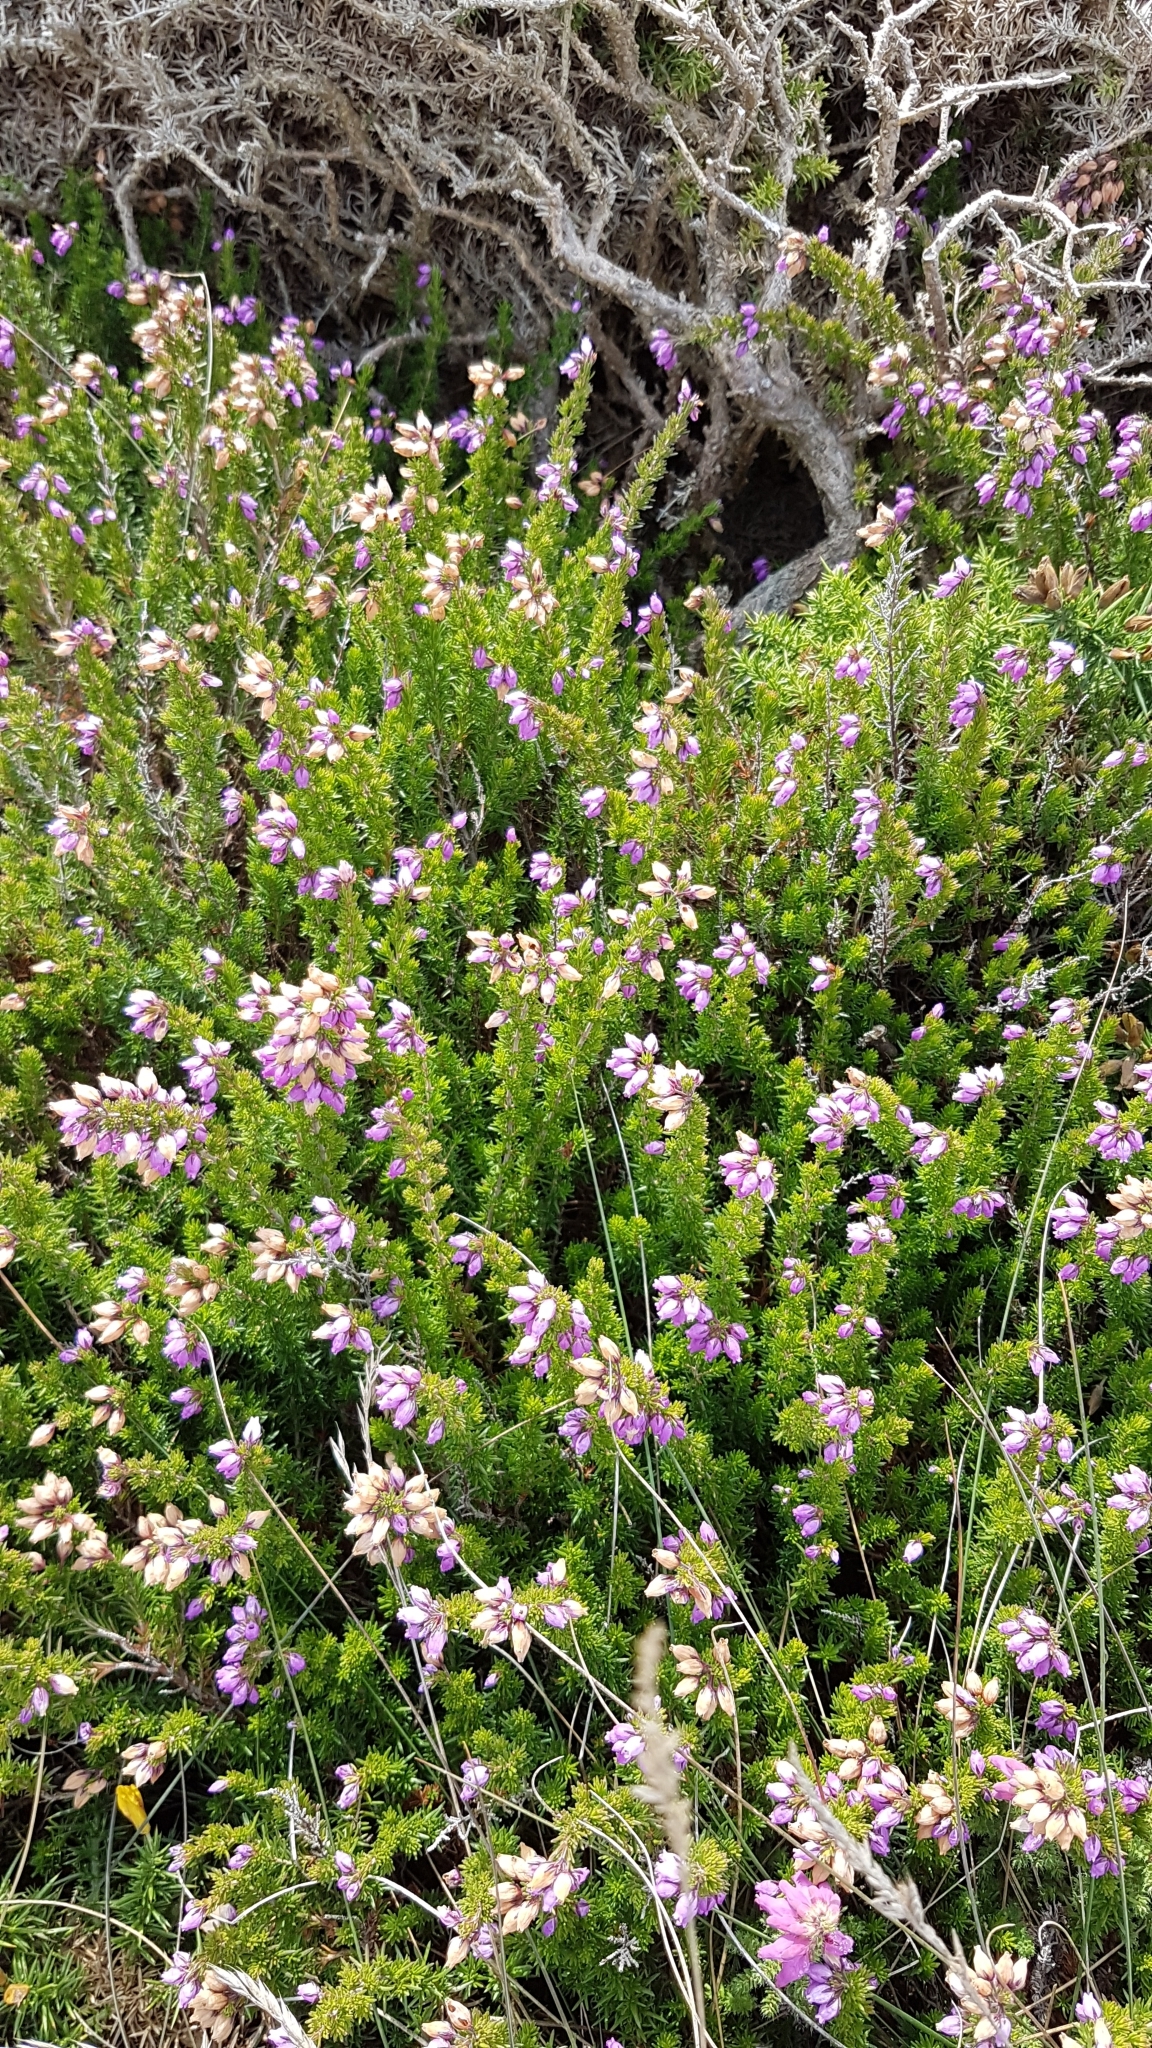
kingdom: Plantae
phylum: Tracheophyta
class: Magnoliopsida
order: Ericales
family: Ericaceae
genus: Erica
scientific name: Erica cinerea
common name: Bell heather
